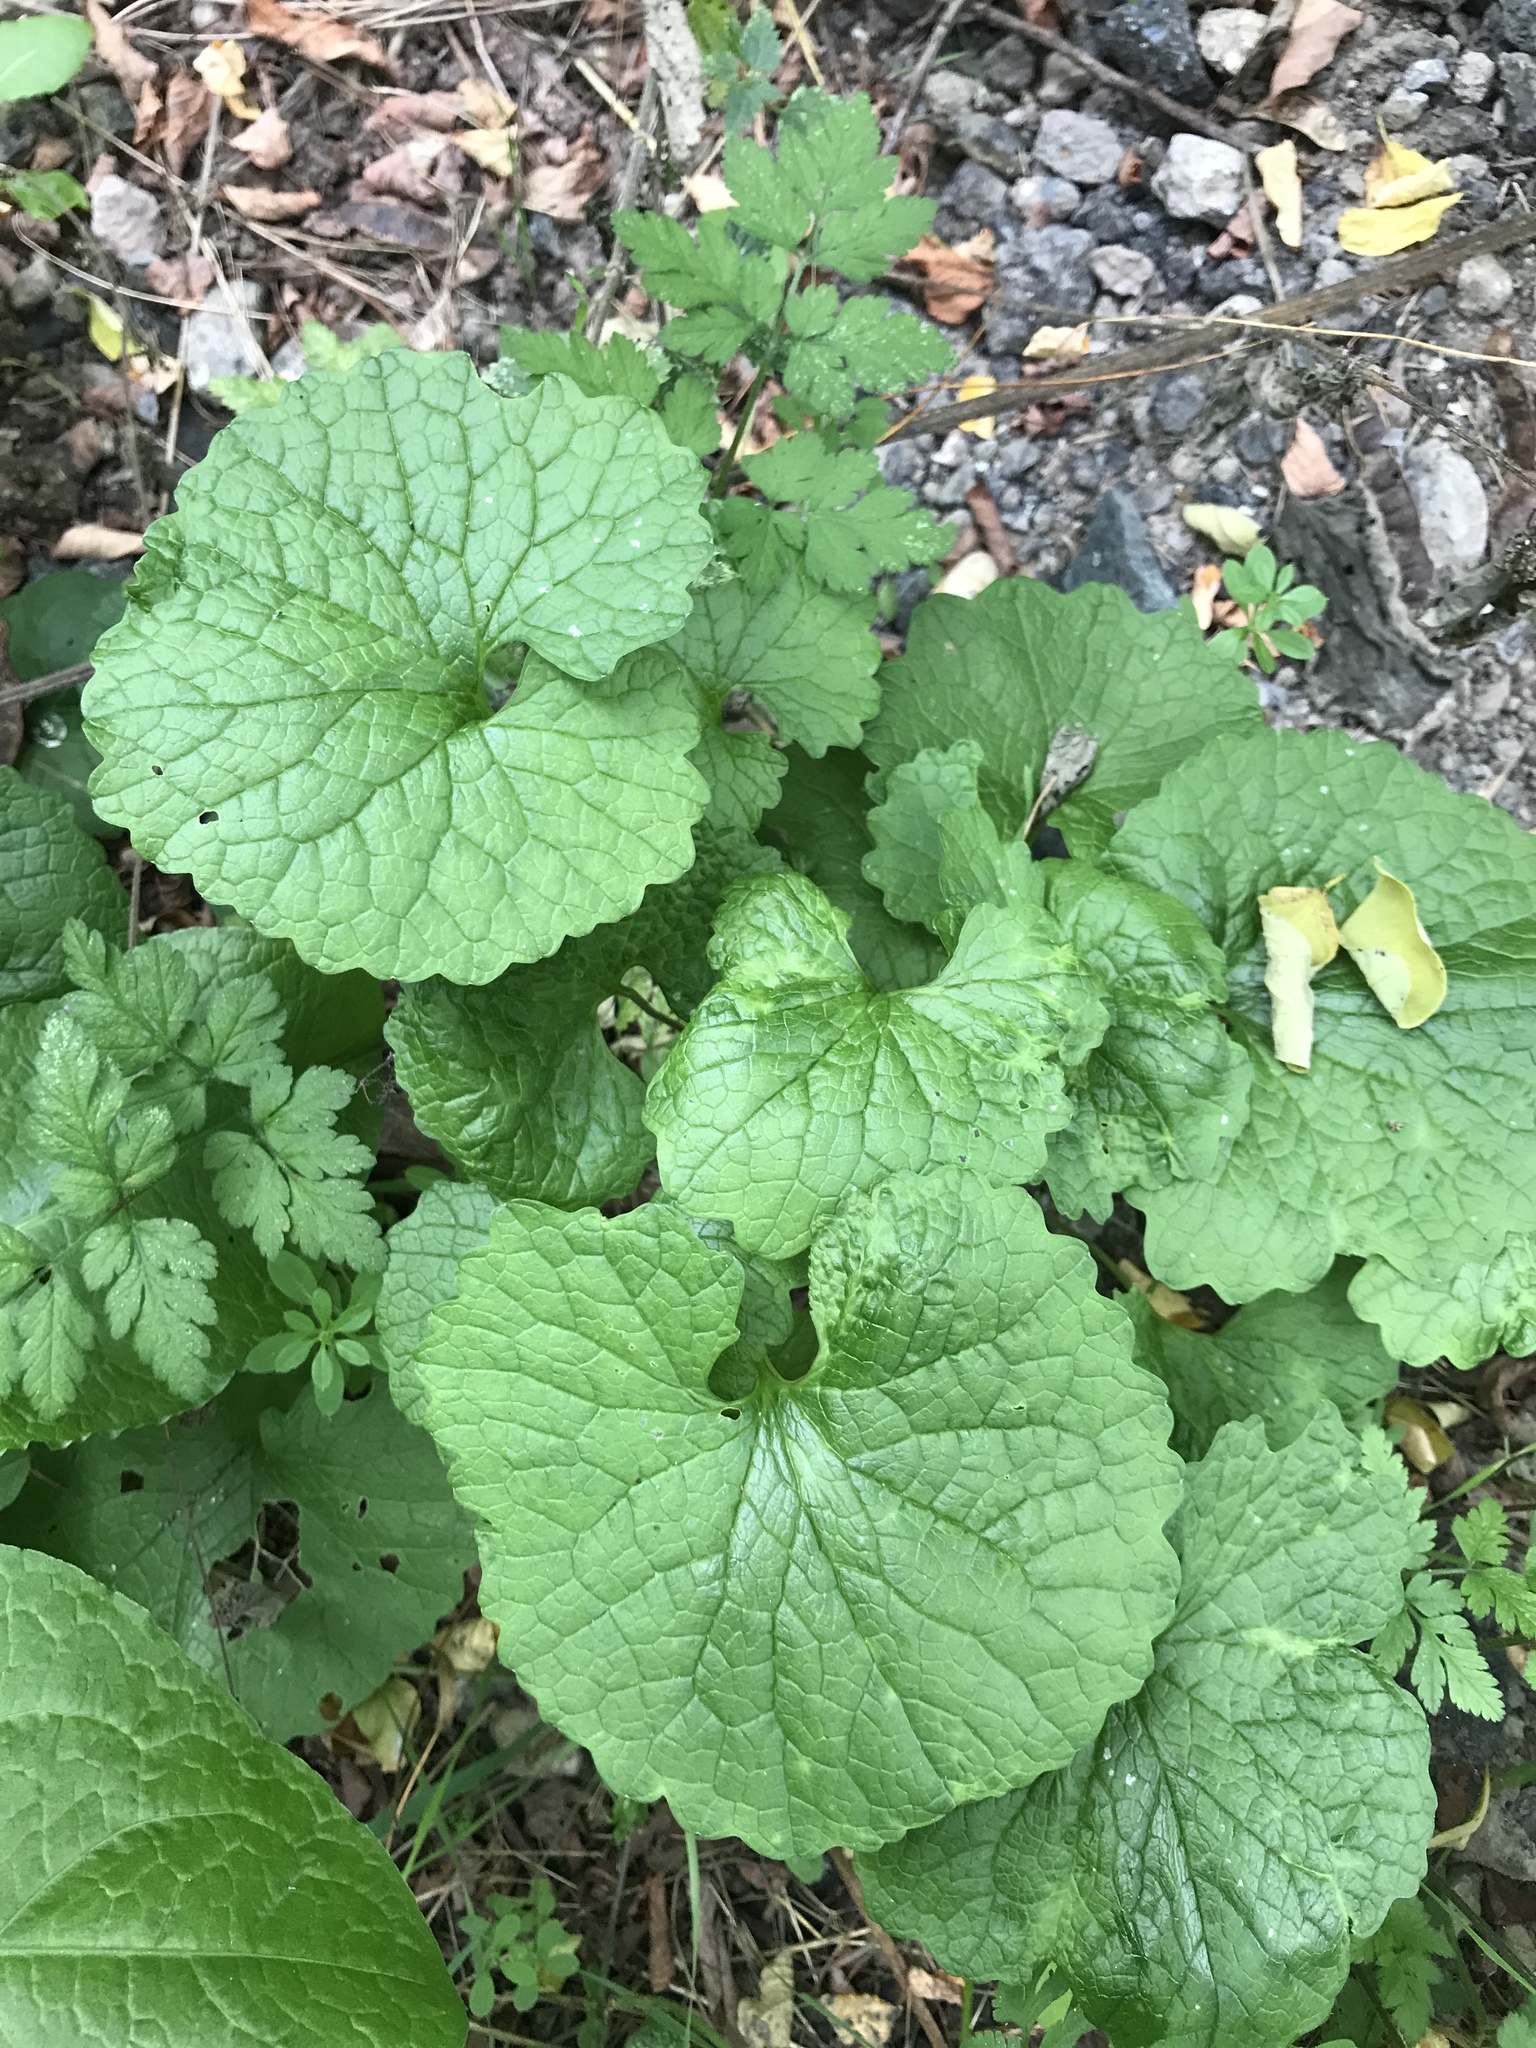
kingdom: Plantae
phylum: Tracheophyta
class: Magnoliopsida
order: Brassicales
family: Brassicaceae
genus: Alliaria
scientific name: Alliaria petiolata
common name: Garlic mustard
